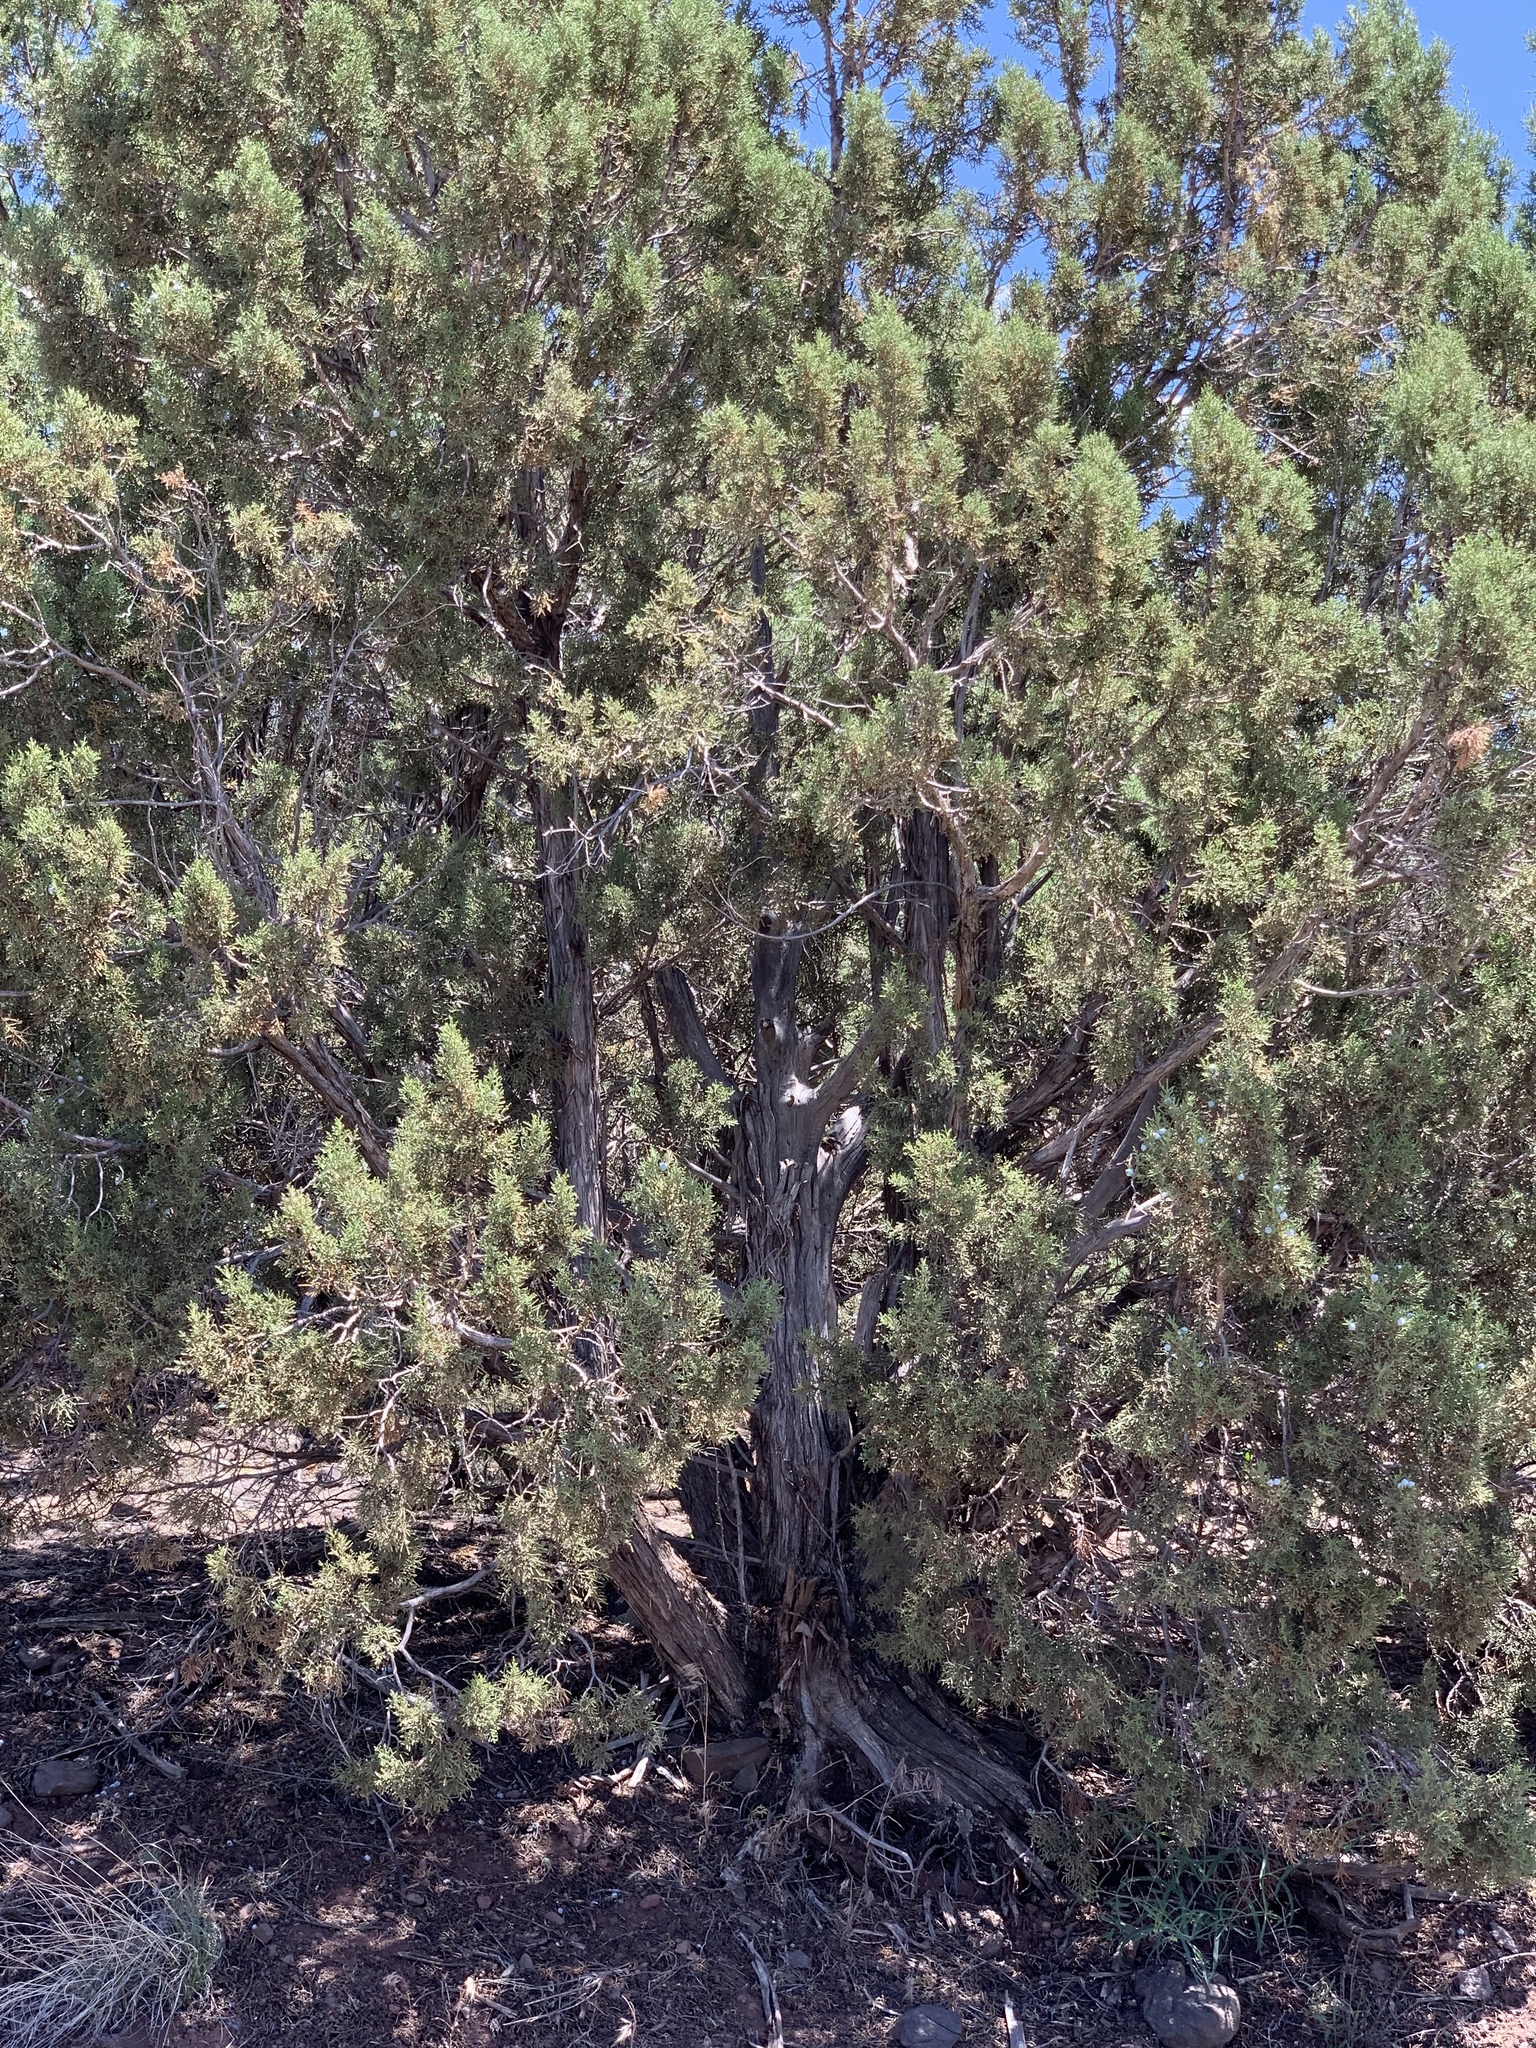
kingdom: Plantae
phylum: Tracheophyta
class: Pinopsida
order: Pinales
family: Cupressaceae
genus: Juniperus
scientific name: Juniperus osteosperma
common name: Utah juniper
